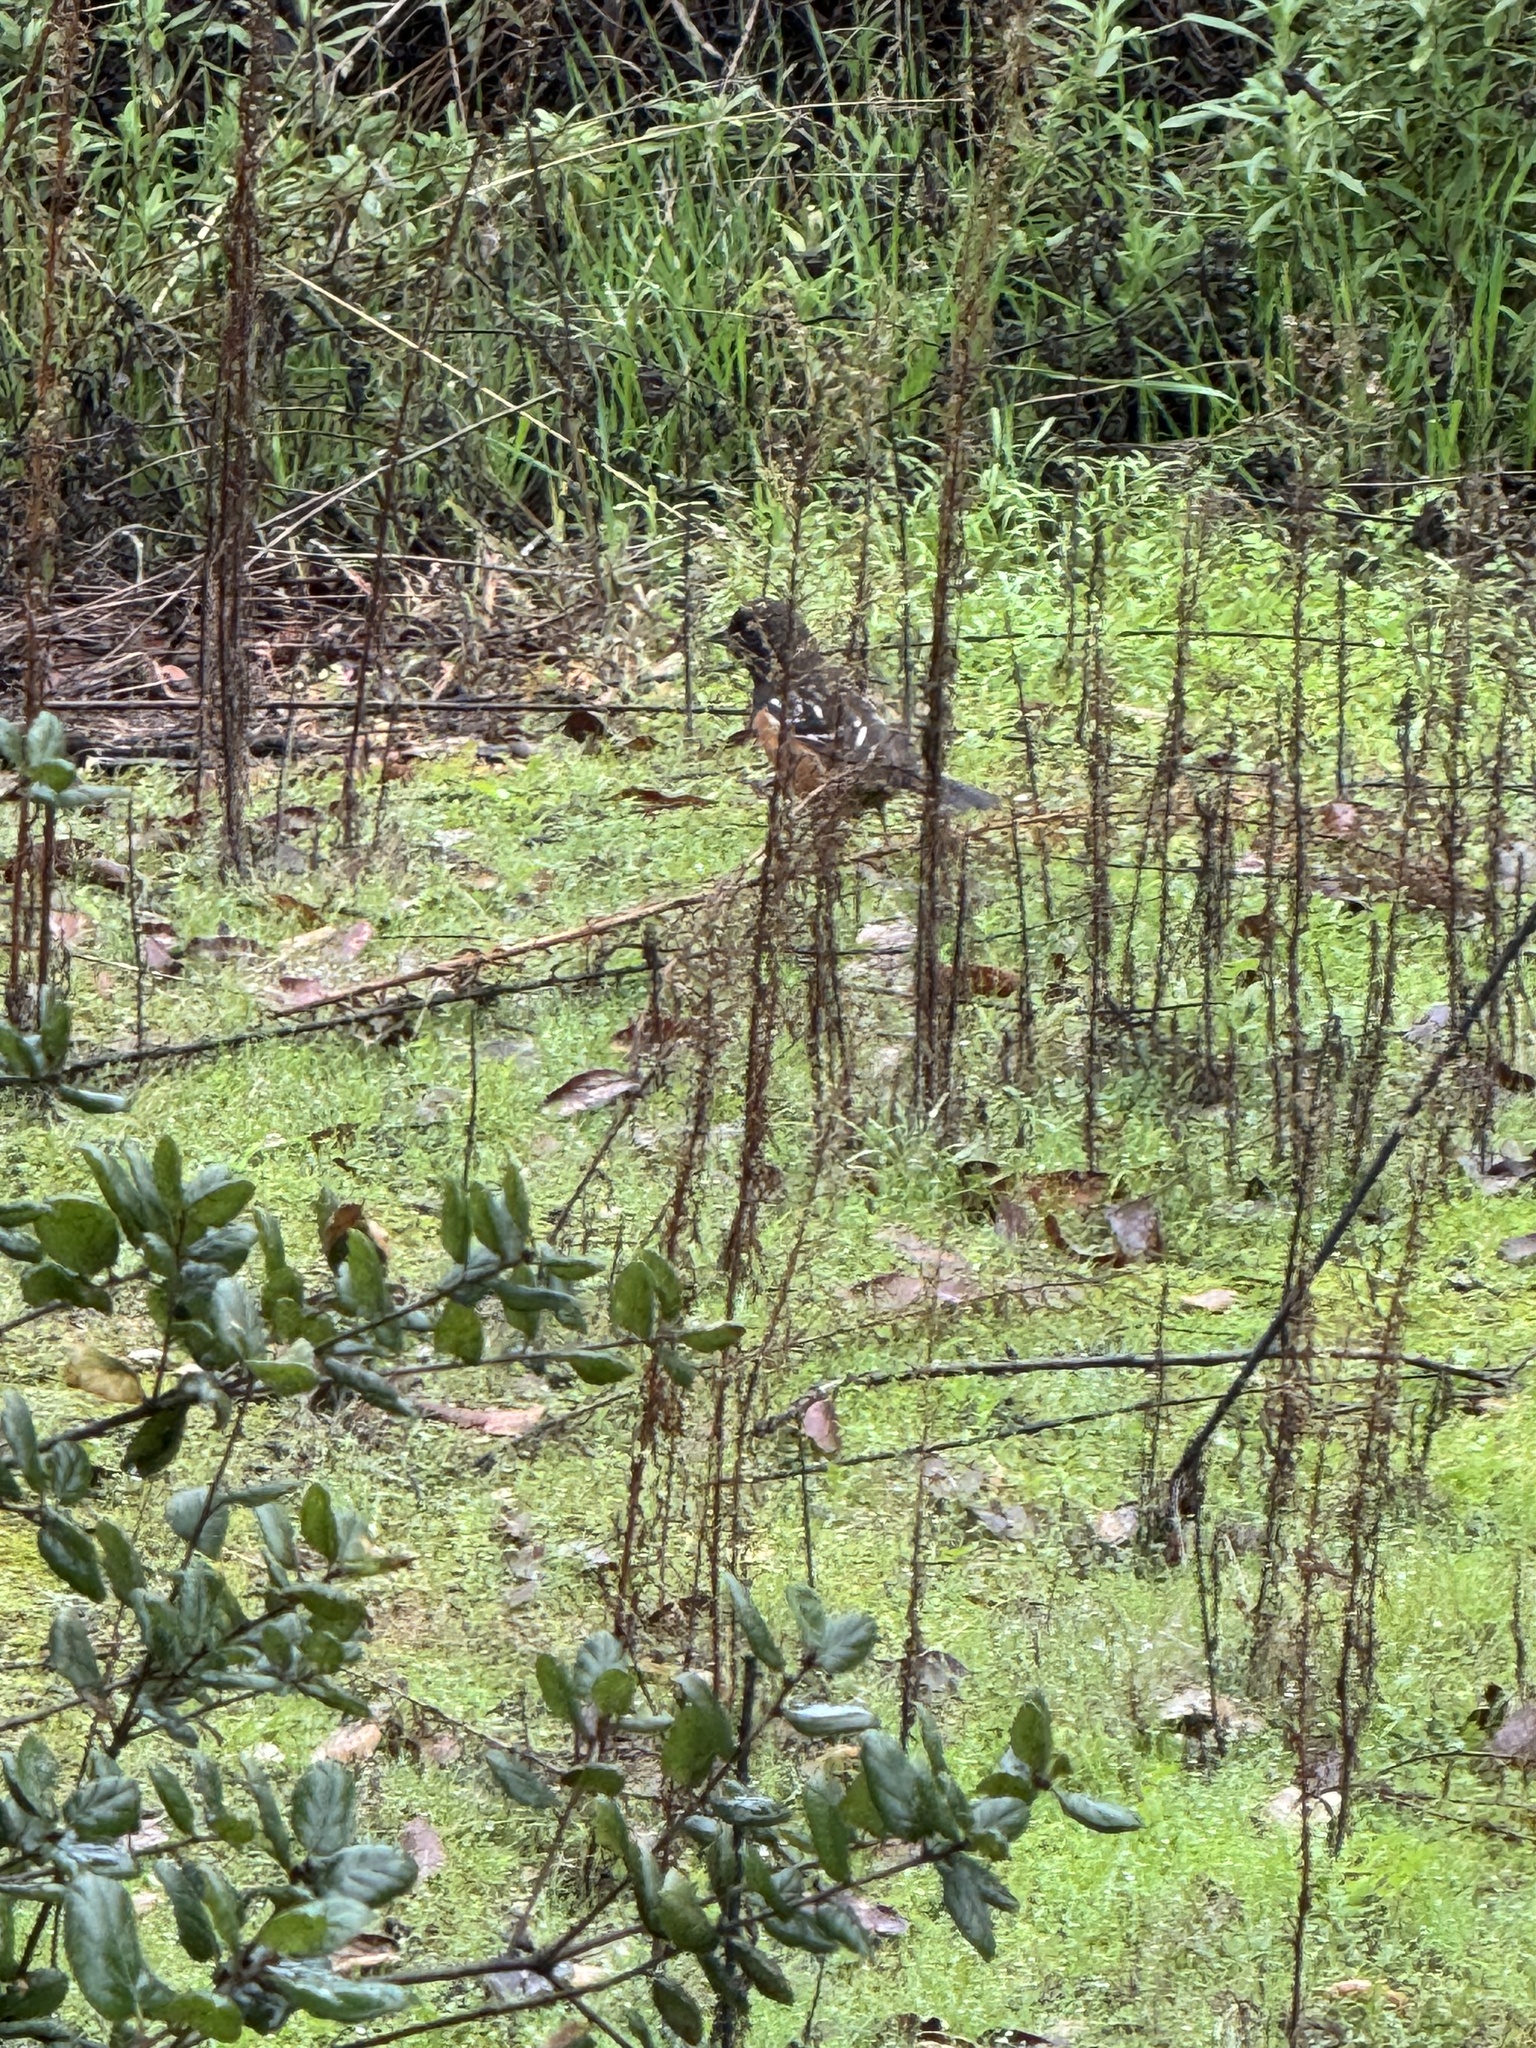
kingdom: Animalia
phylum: Chordata
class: Aves
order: Passeriformes
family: Passerellidae
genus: Pipilo
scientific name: Pipilo maculatus
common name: Spotted towhee
